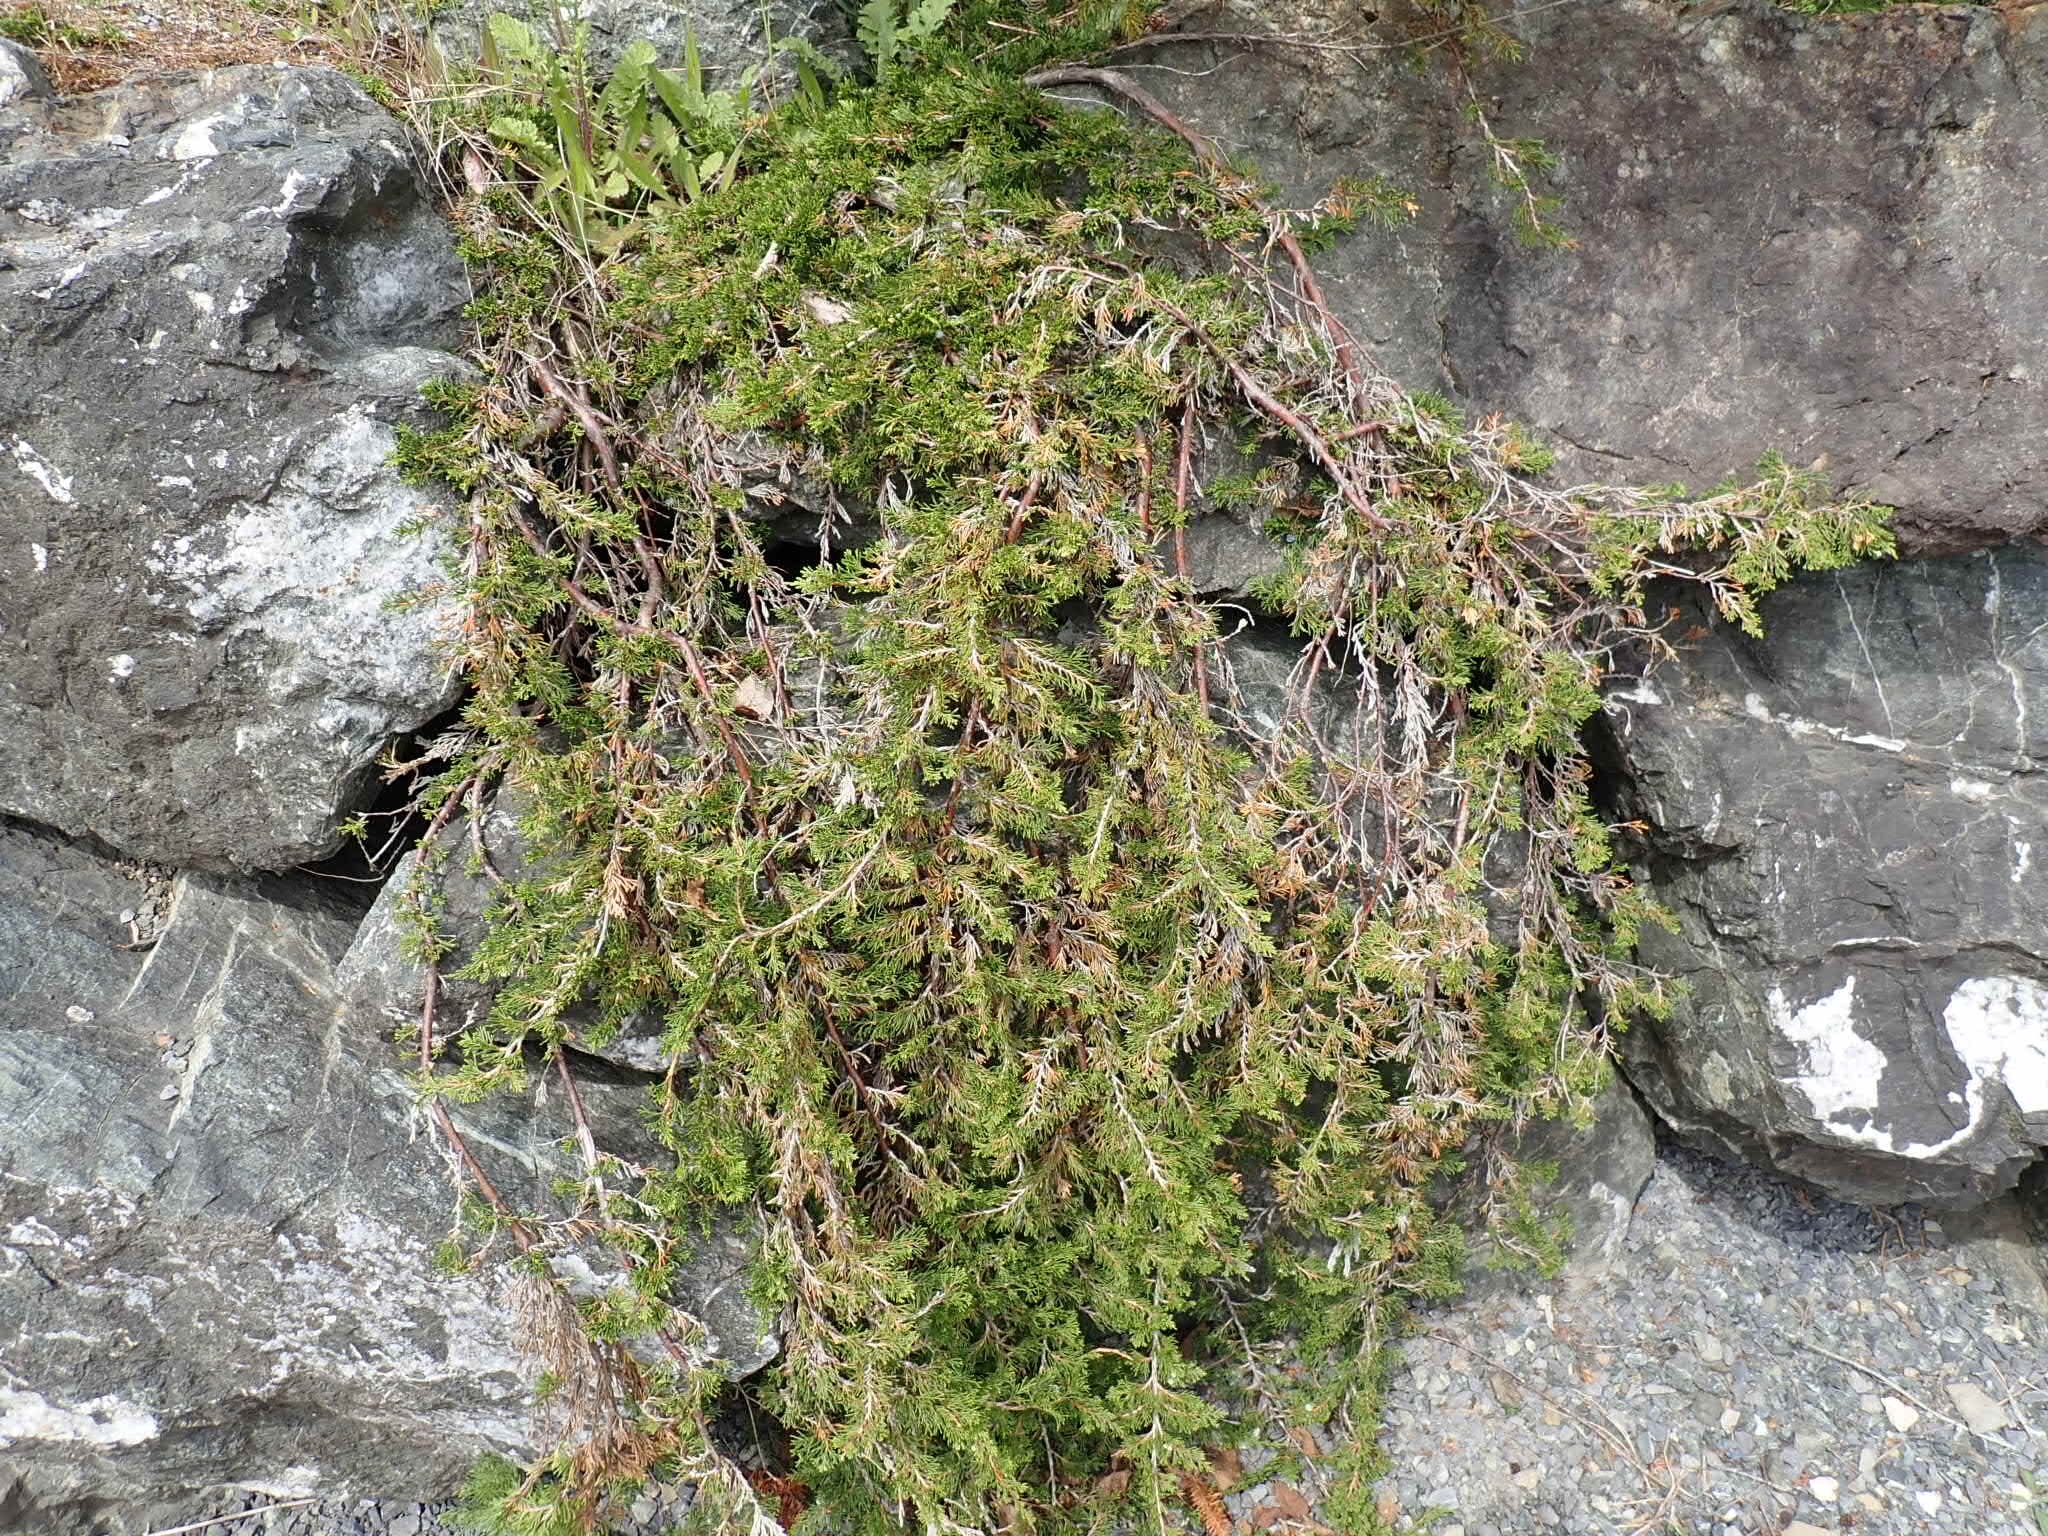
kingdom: Plantae
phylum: Tracheophyta
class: Pinopsida
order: Pinales
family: Cupressaceae
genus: Juniperus
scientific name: Juniperus horizontalis
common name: Creeping juniper
